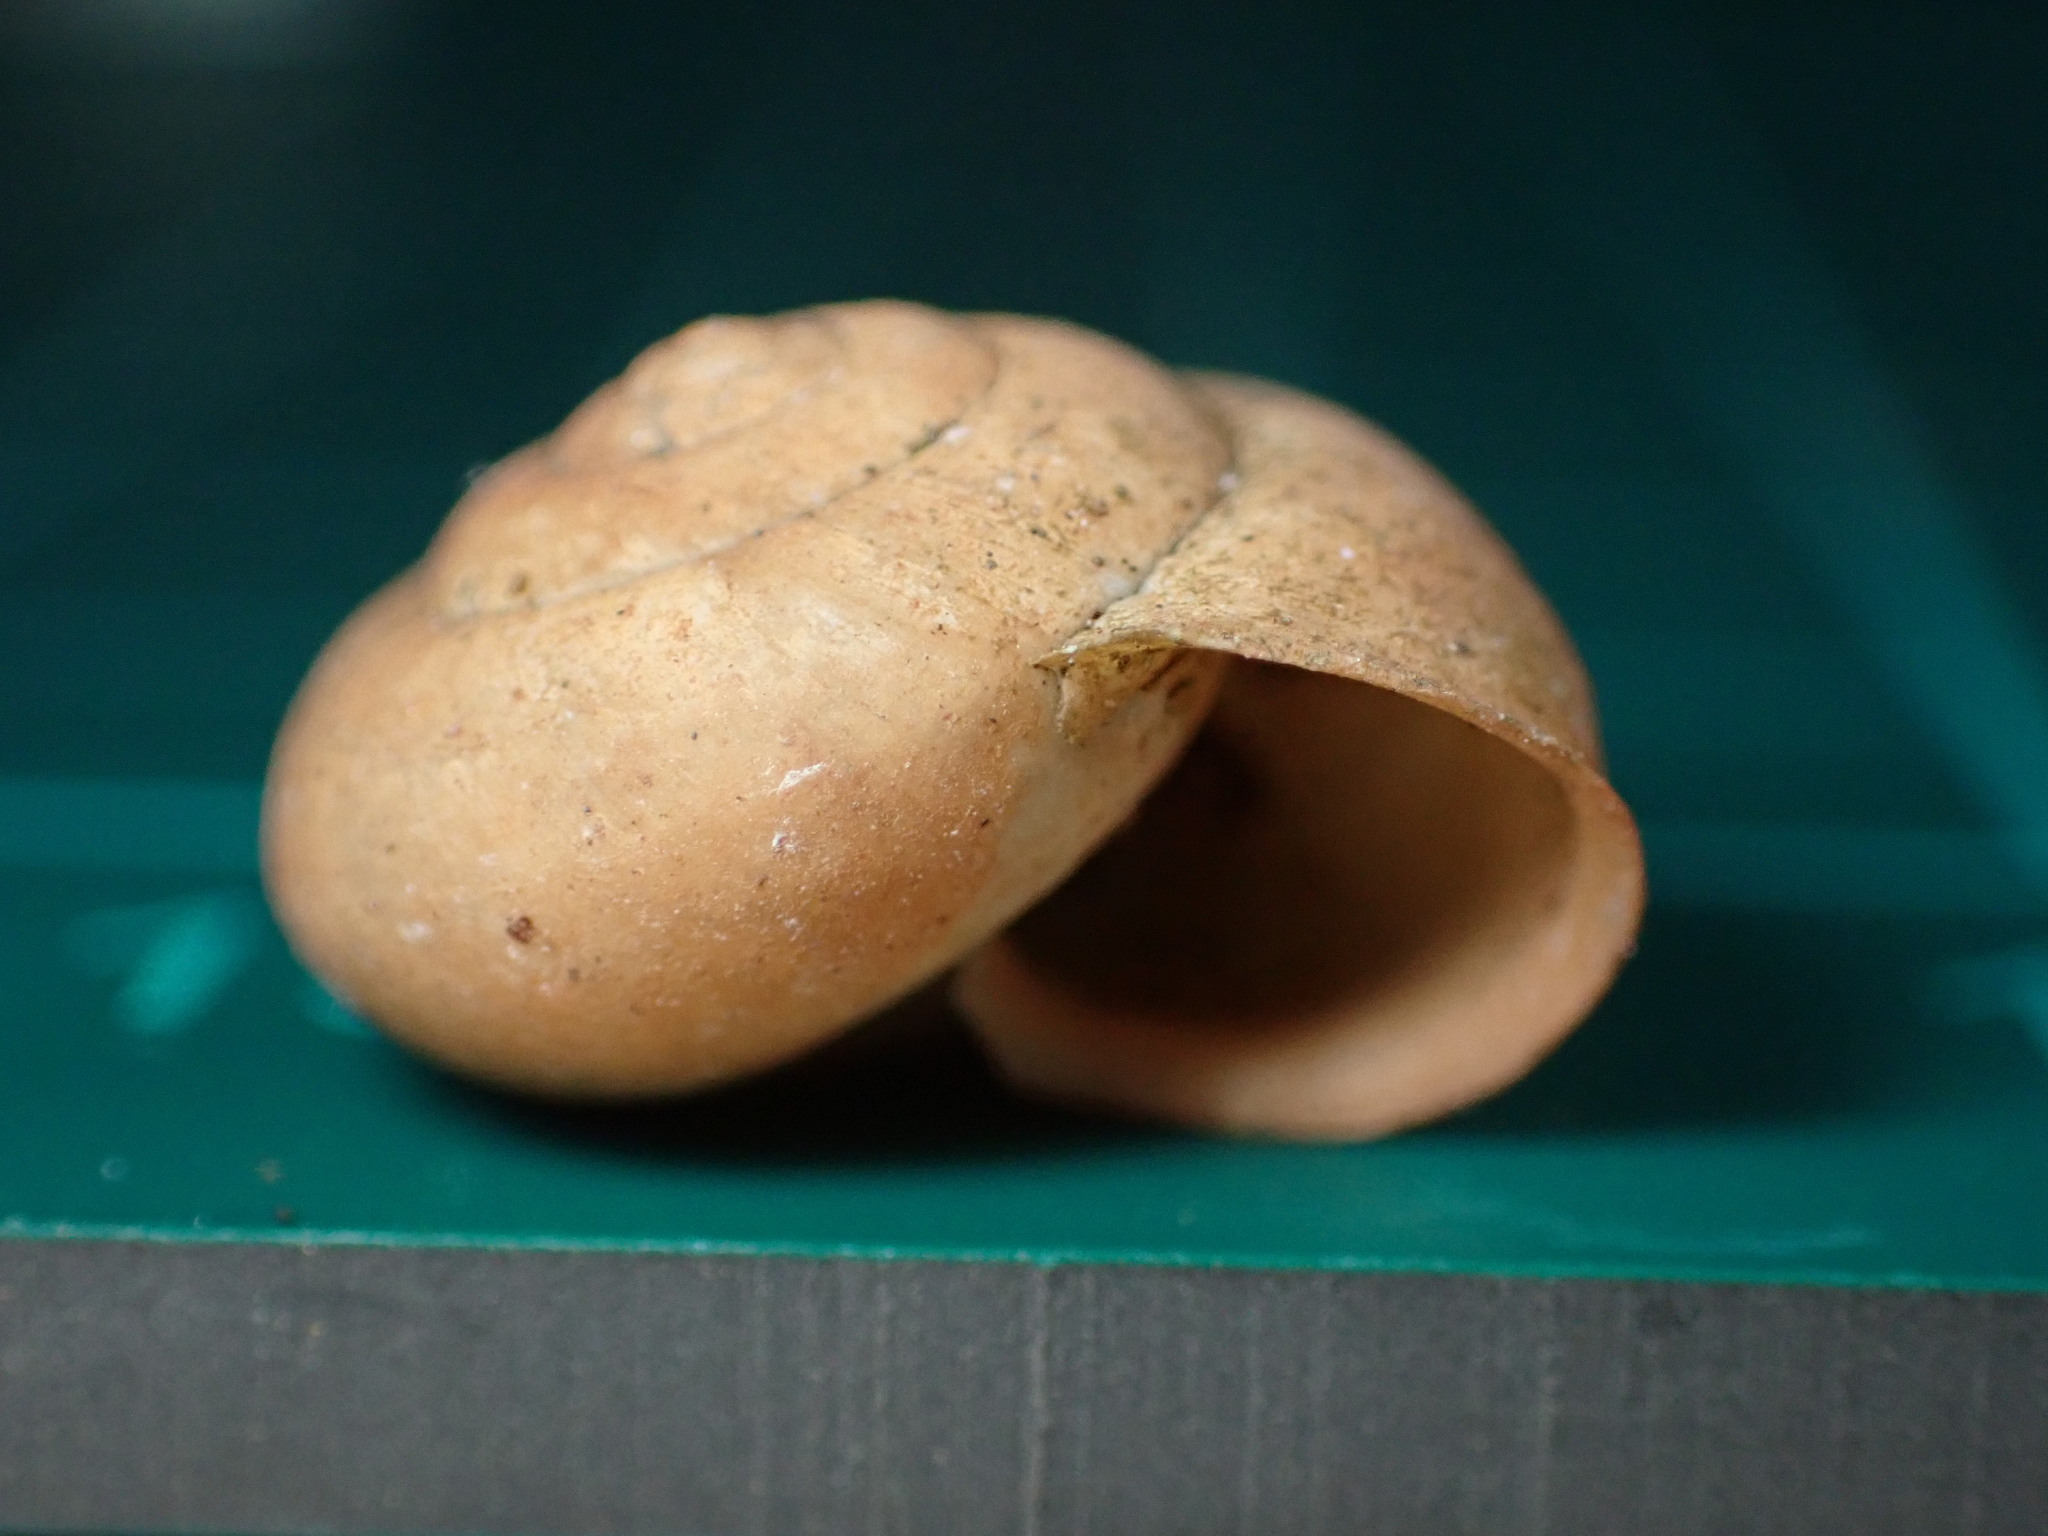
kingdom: Animalia
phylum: Mollusca
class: Gastropoda
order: Stylommatophora
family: Camaenidae
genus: Bradybaena
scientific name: Bradybaena similaris
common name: Asian trampsnail
